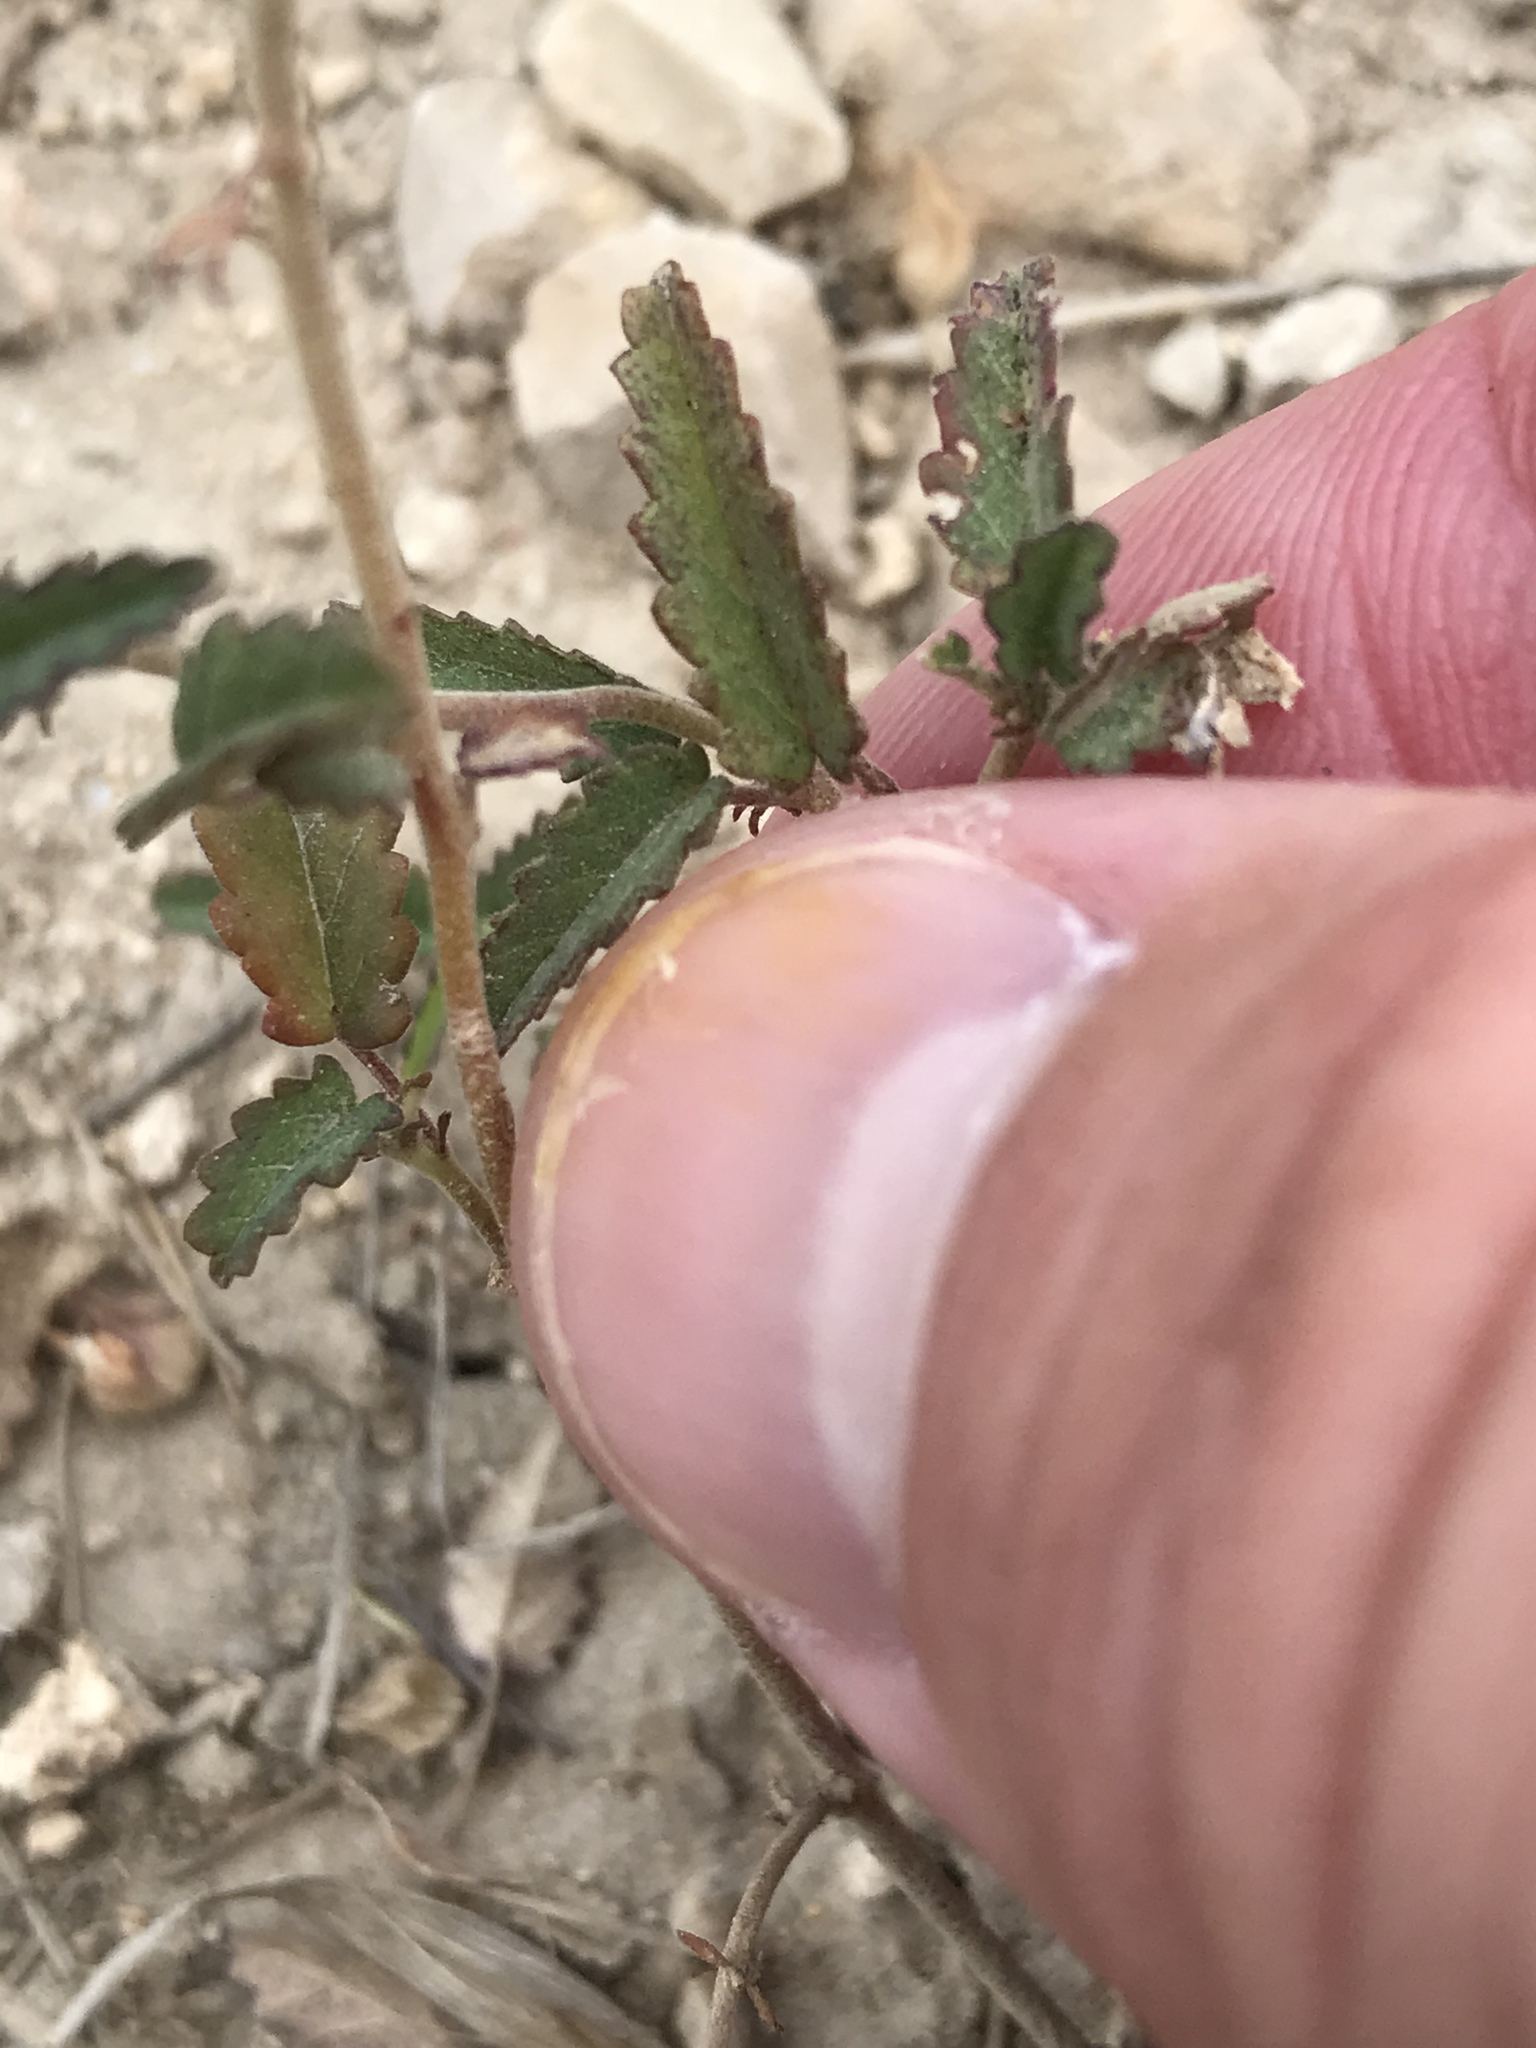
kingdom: Plantae
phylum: Tracheophyta
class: Magnoliopsida
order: Malvales
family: Malvaceae
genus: Sida
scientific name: Sida abutilifolia
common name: Spreading fanpetals
